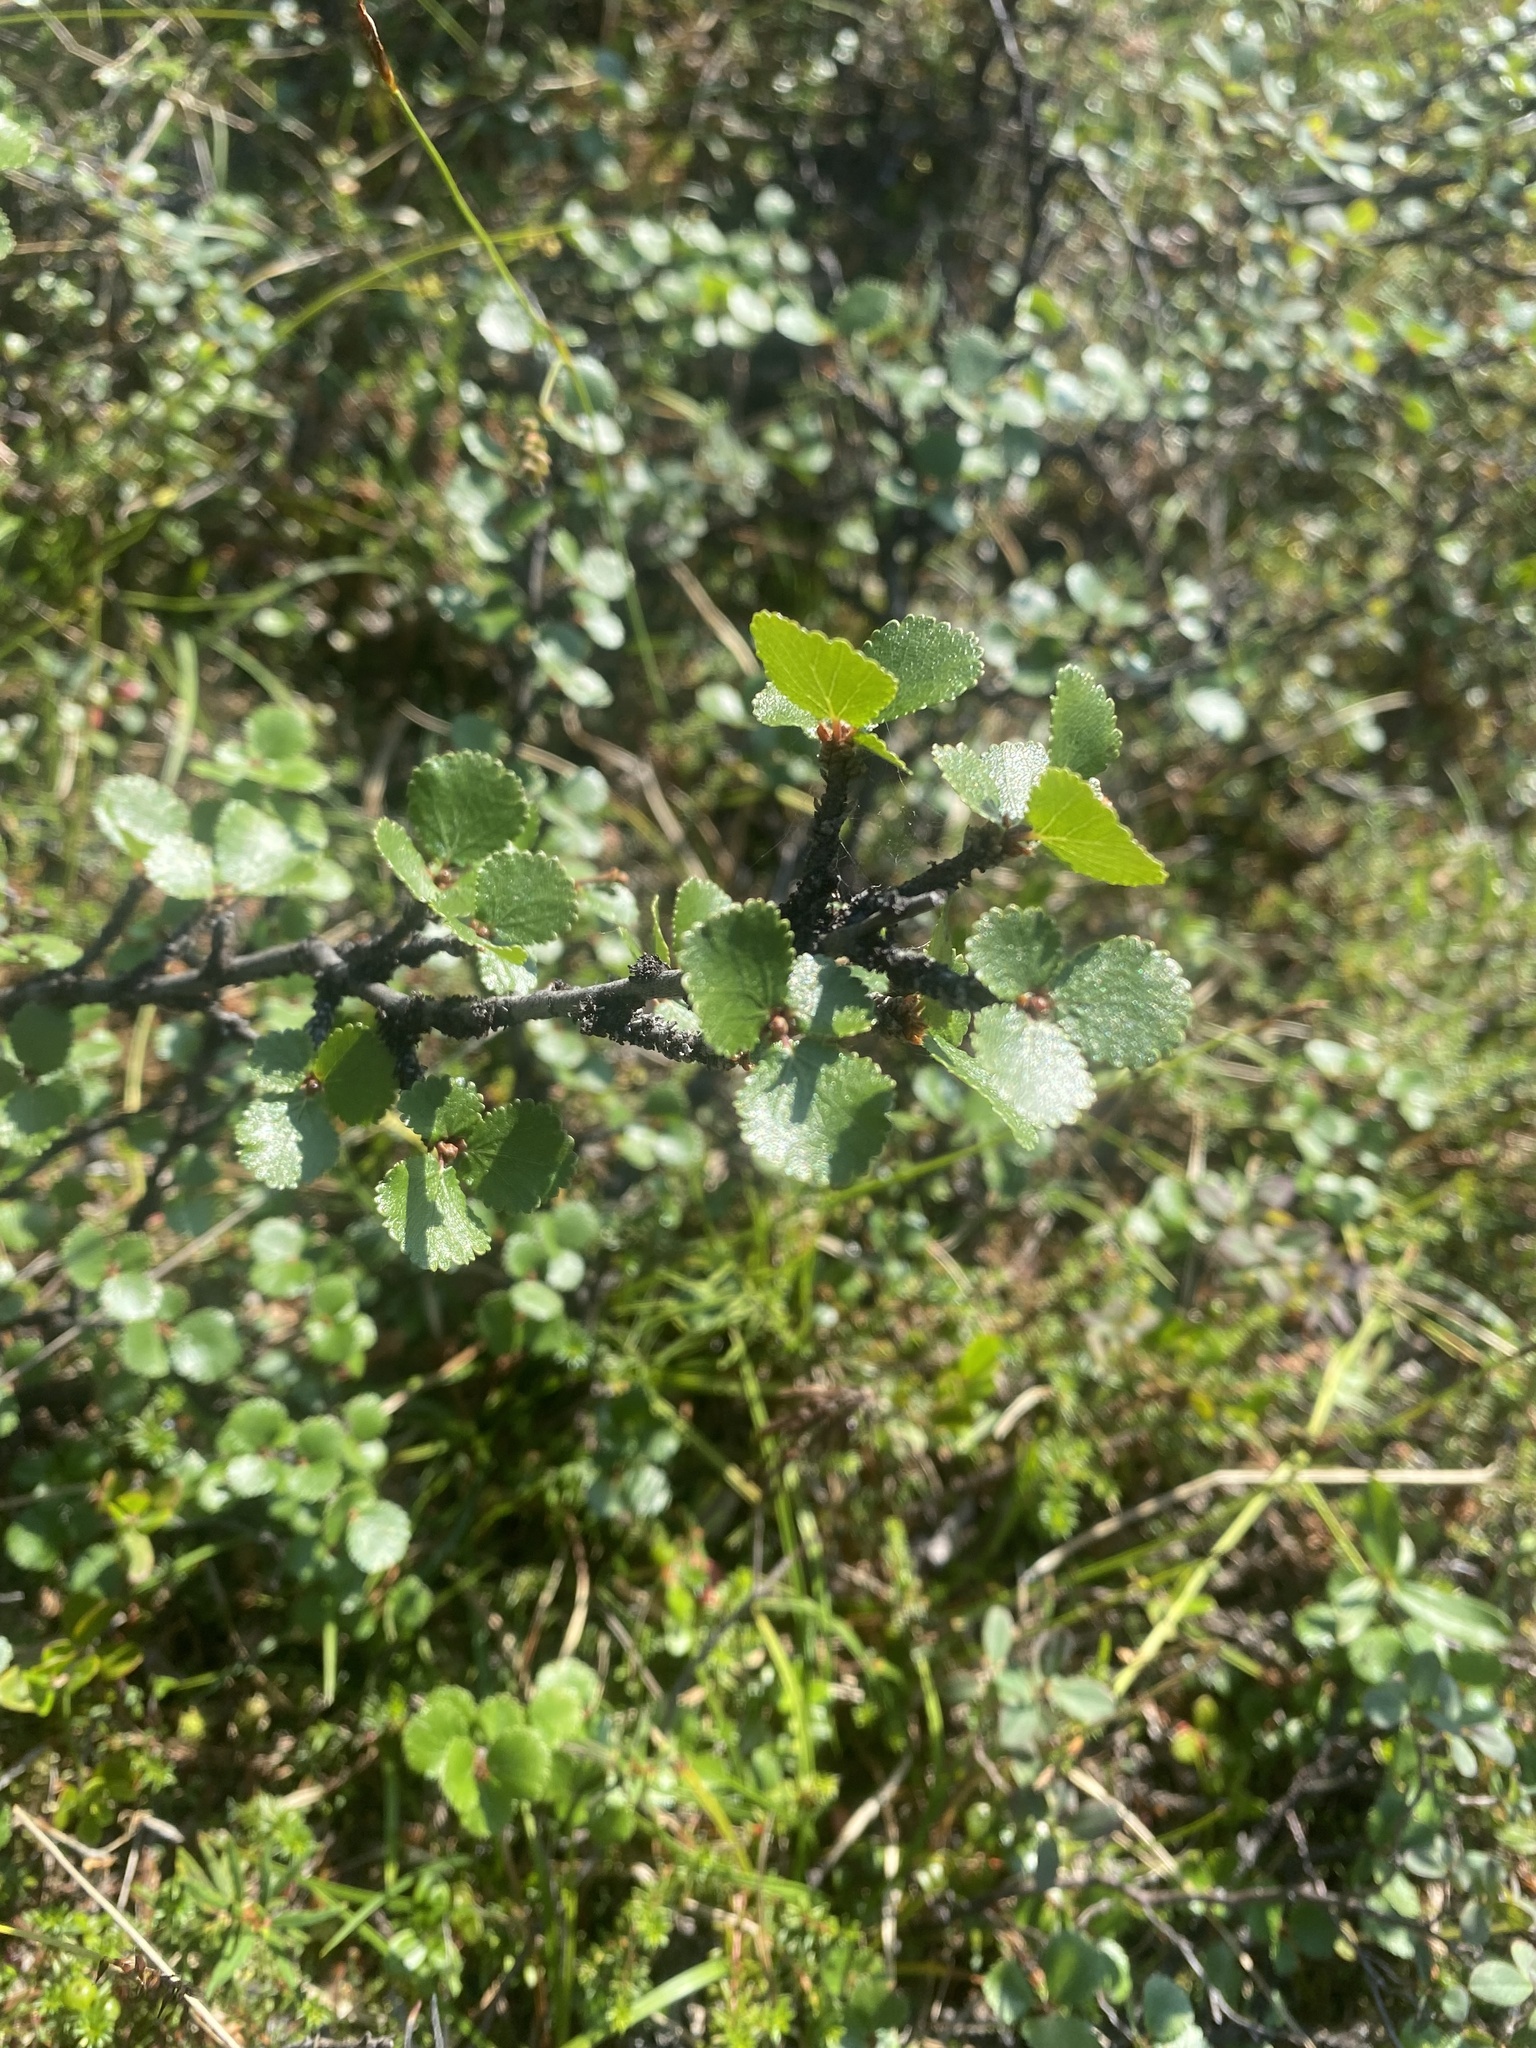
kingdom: Plantae
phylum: Tracheophyta
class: Magnoliopsida
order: Fagales
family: Betulaceae
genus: Betula
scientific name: Betula nana
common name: Arctic dwarf birch
